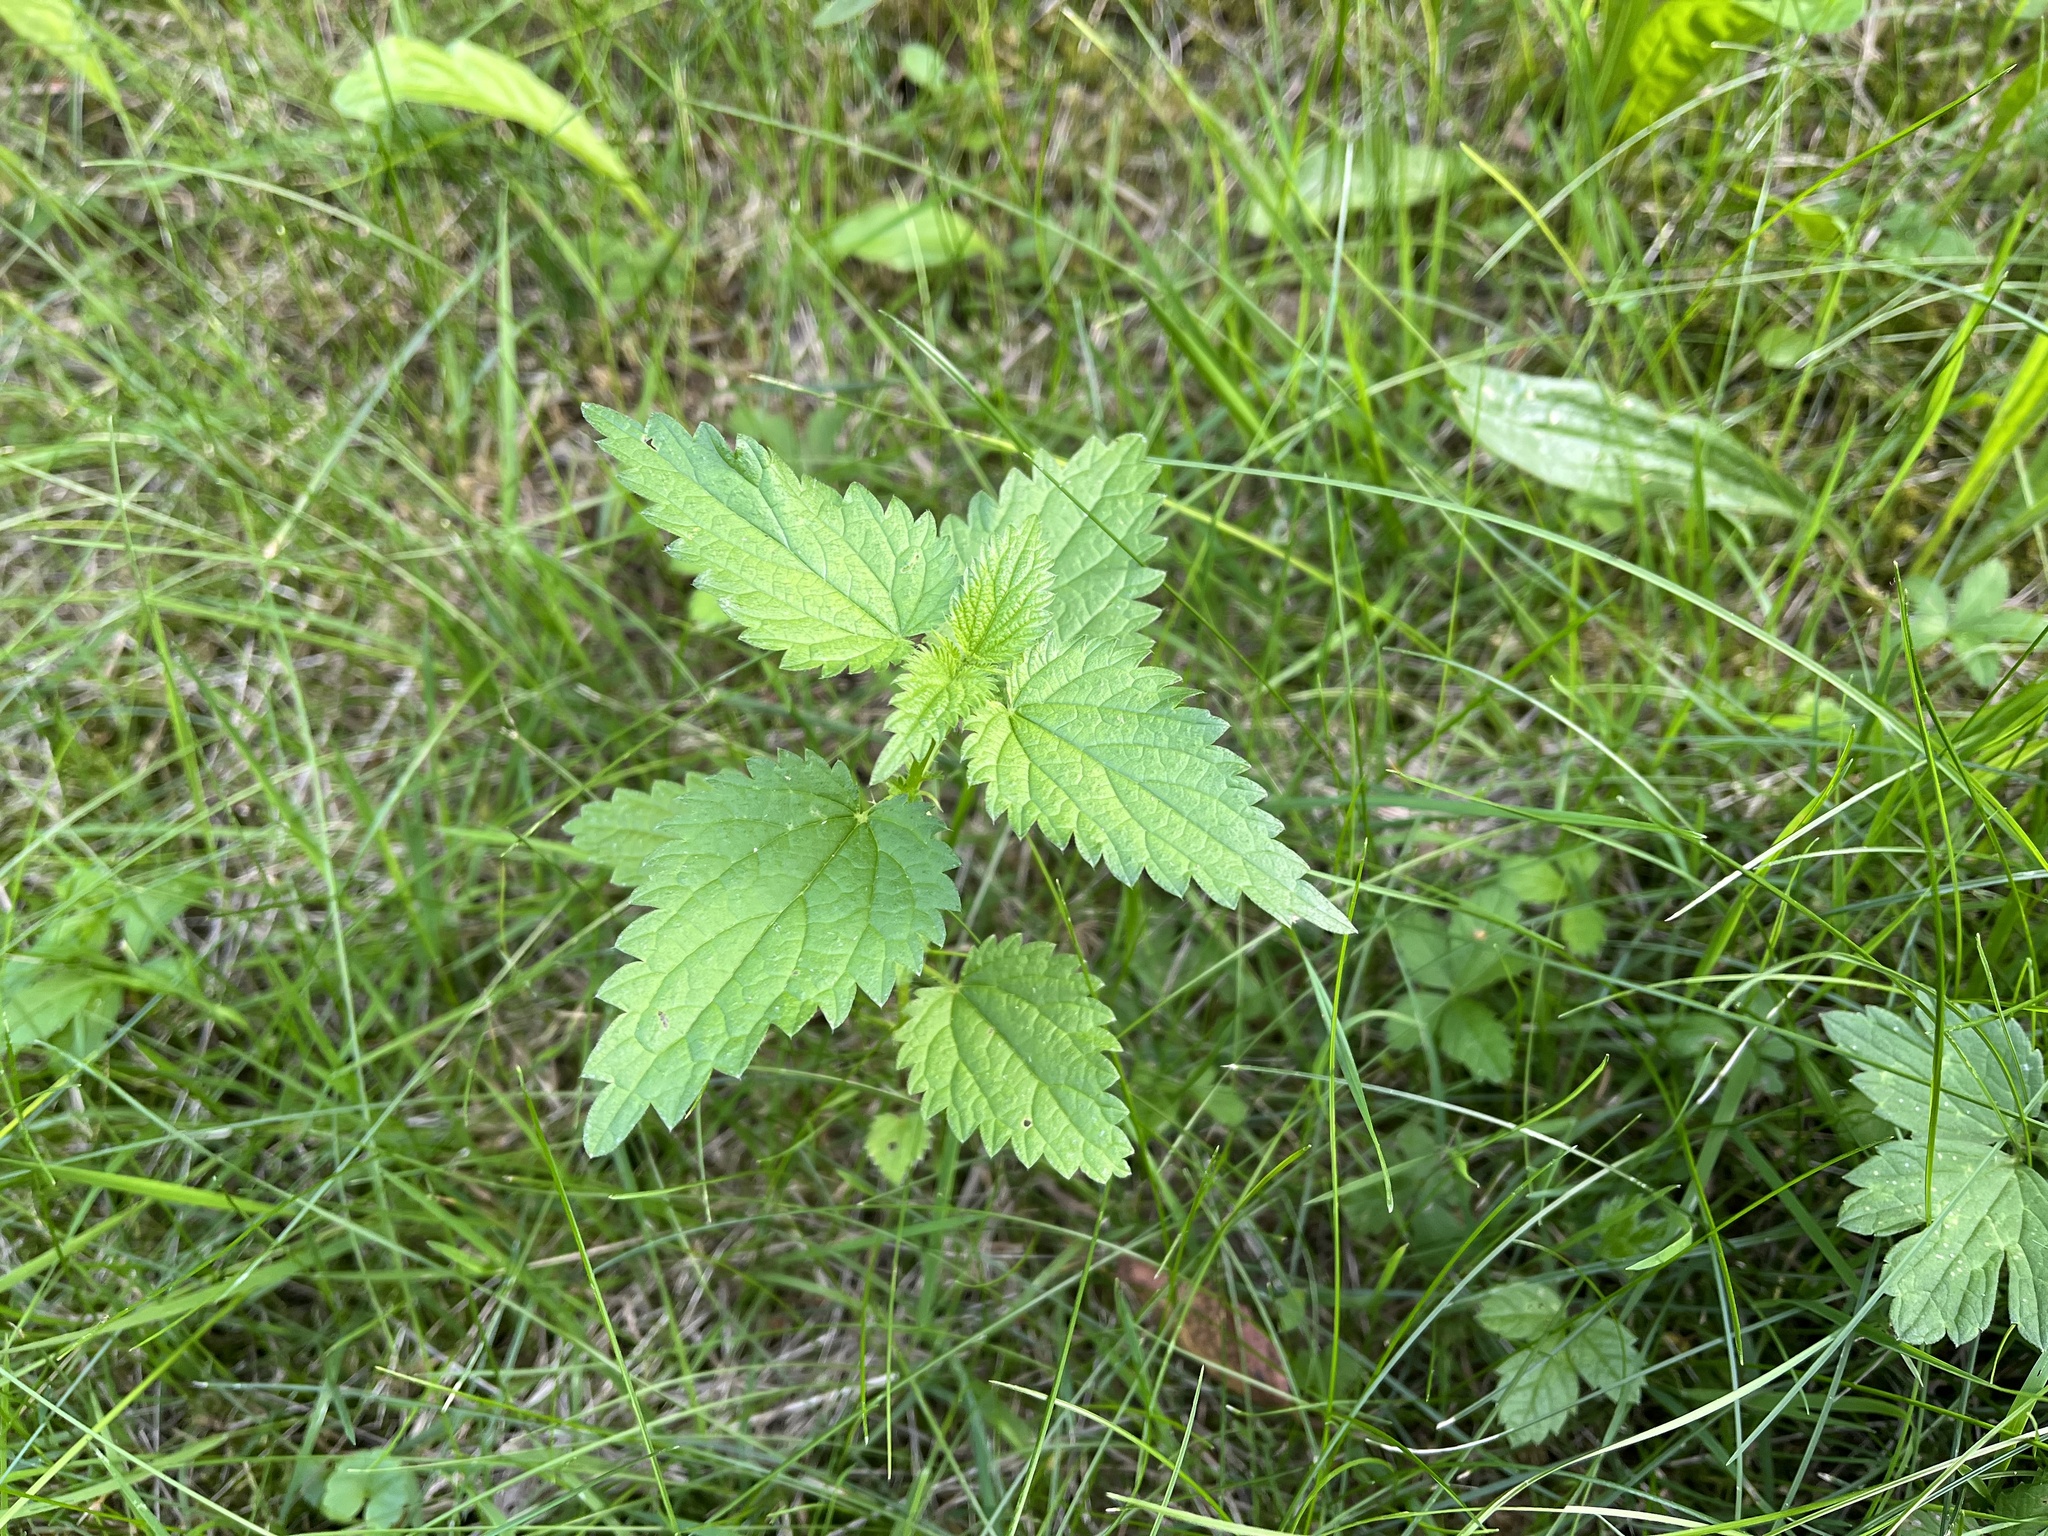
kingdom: Plantae
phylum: Tracheophyta
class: Magnoliopsida
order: Rosales
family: Urticaceae
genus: Urtica
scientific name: Urtica dioica
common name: Common nettle
